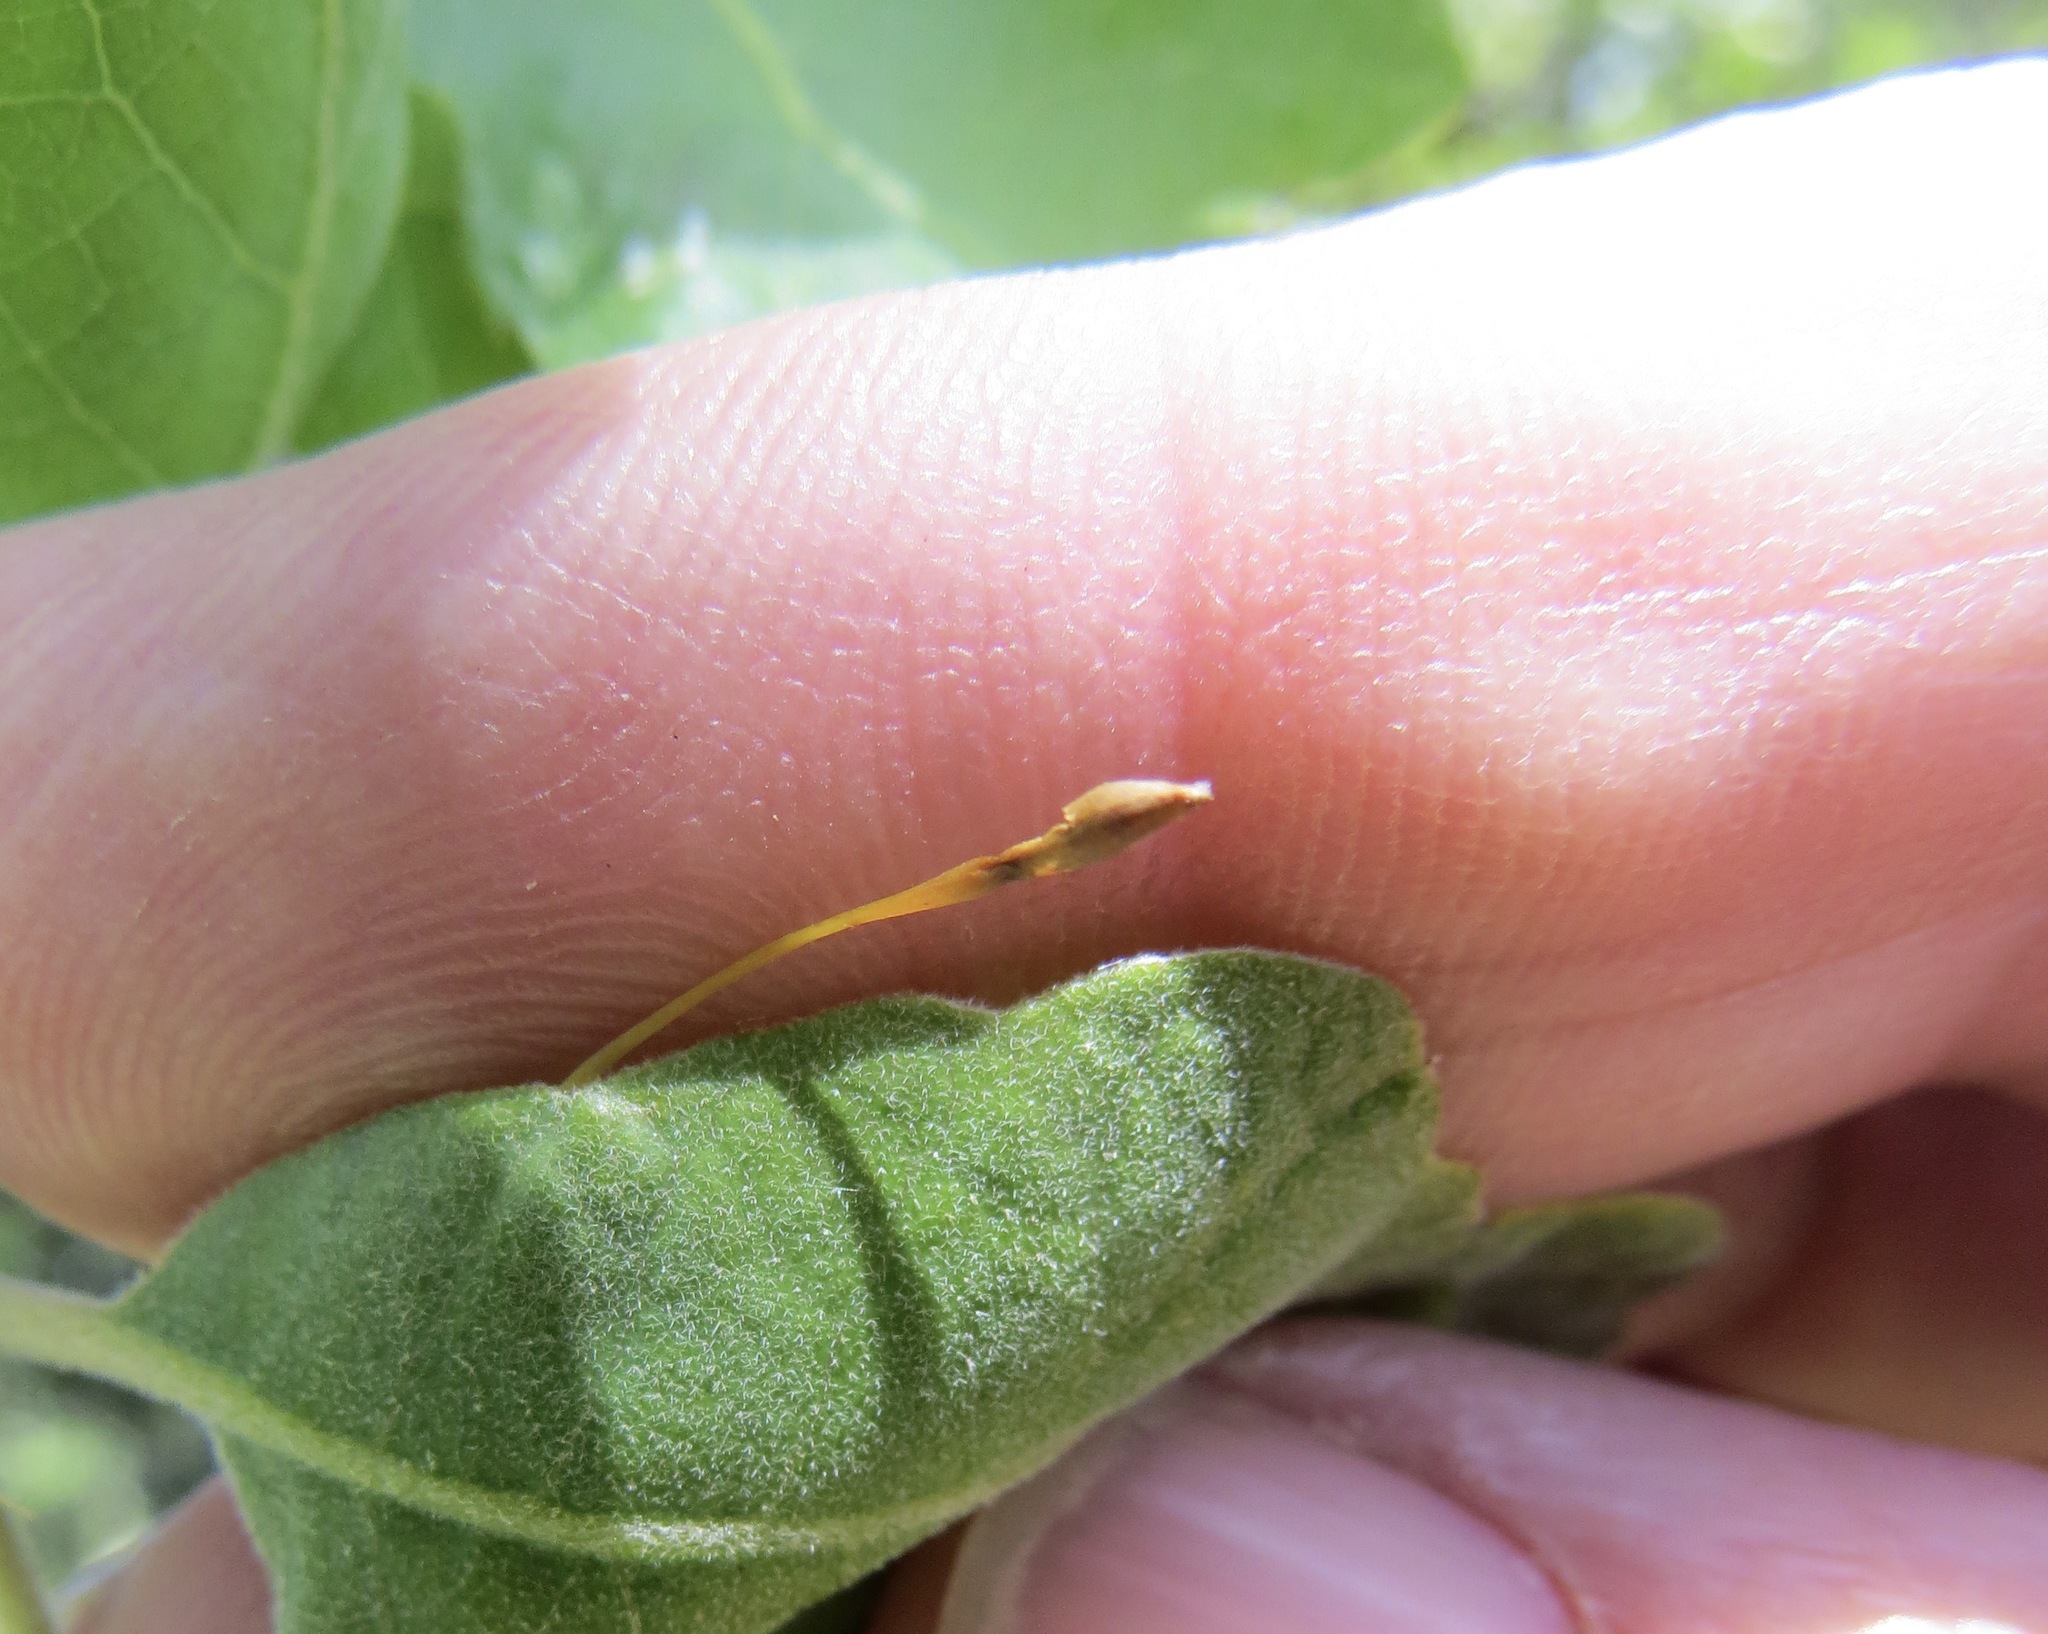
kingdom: Animalia
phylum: Arthropoda
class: Insecta
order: Hymenoptera
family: Cynipidae
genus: Andricus
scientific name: Andricus
